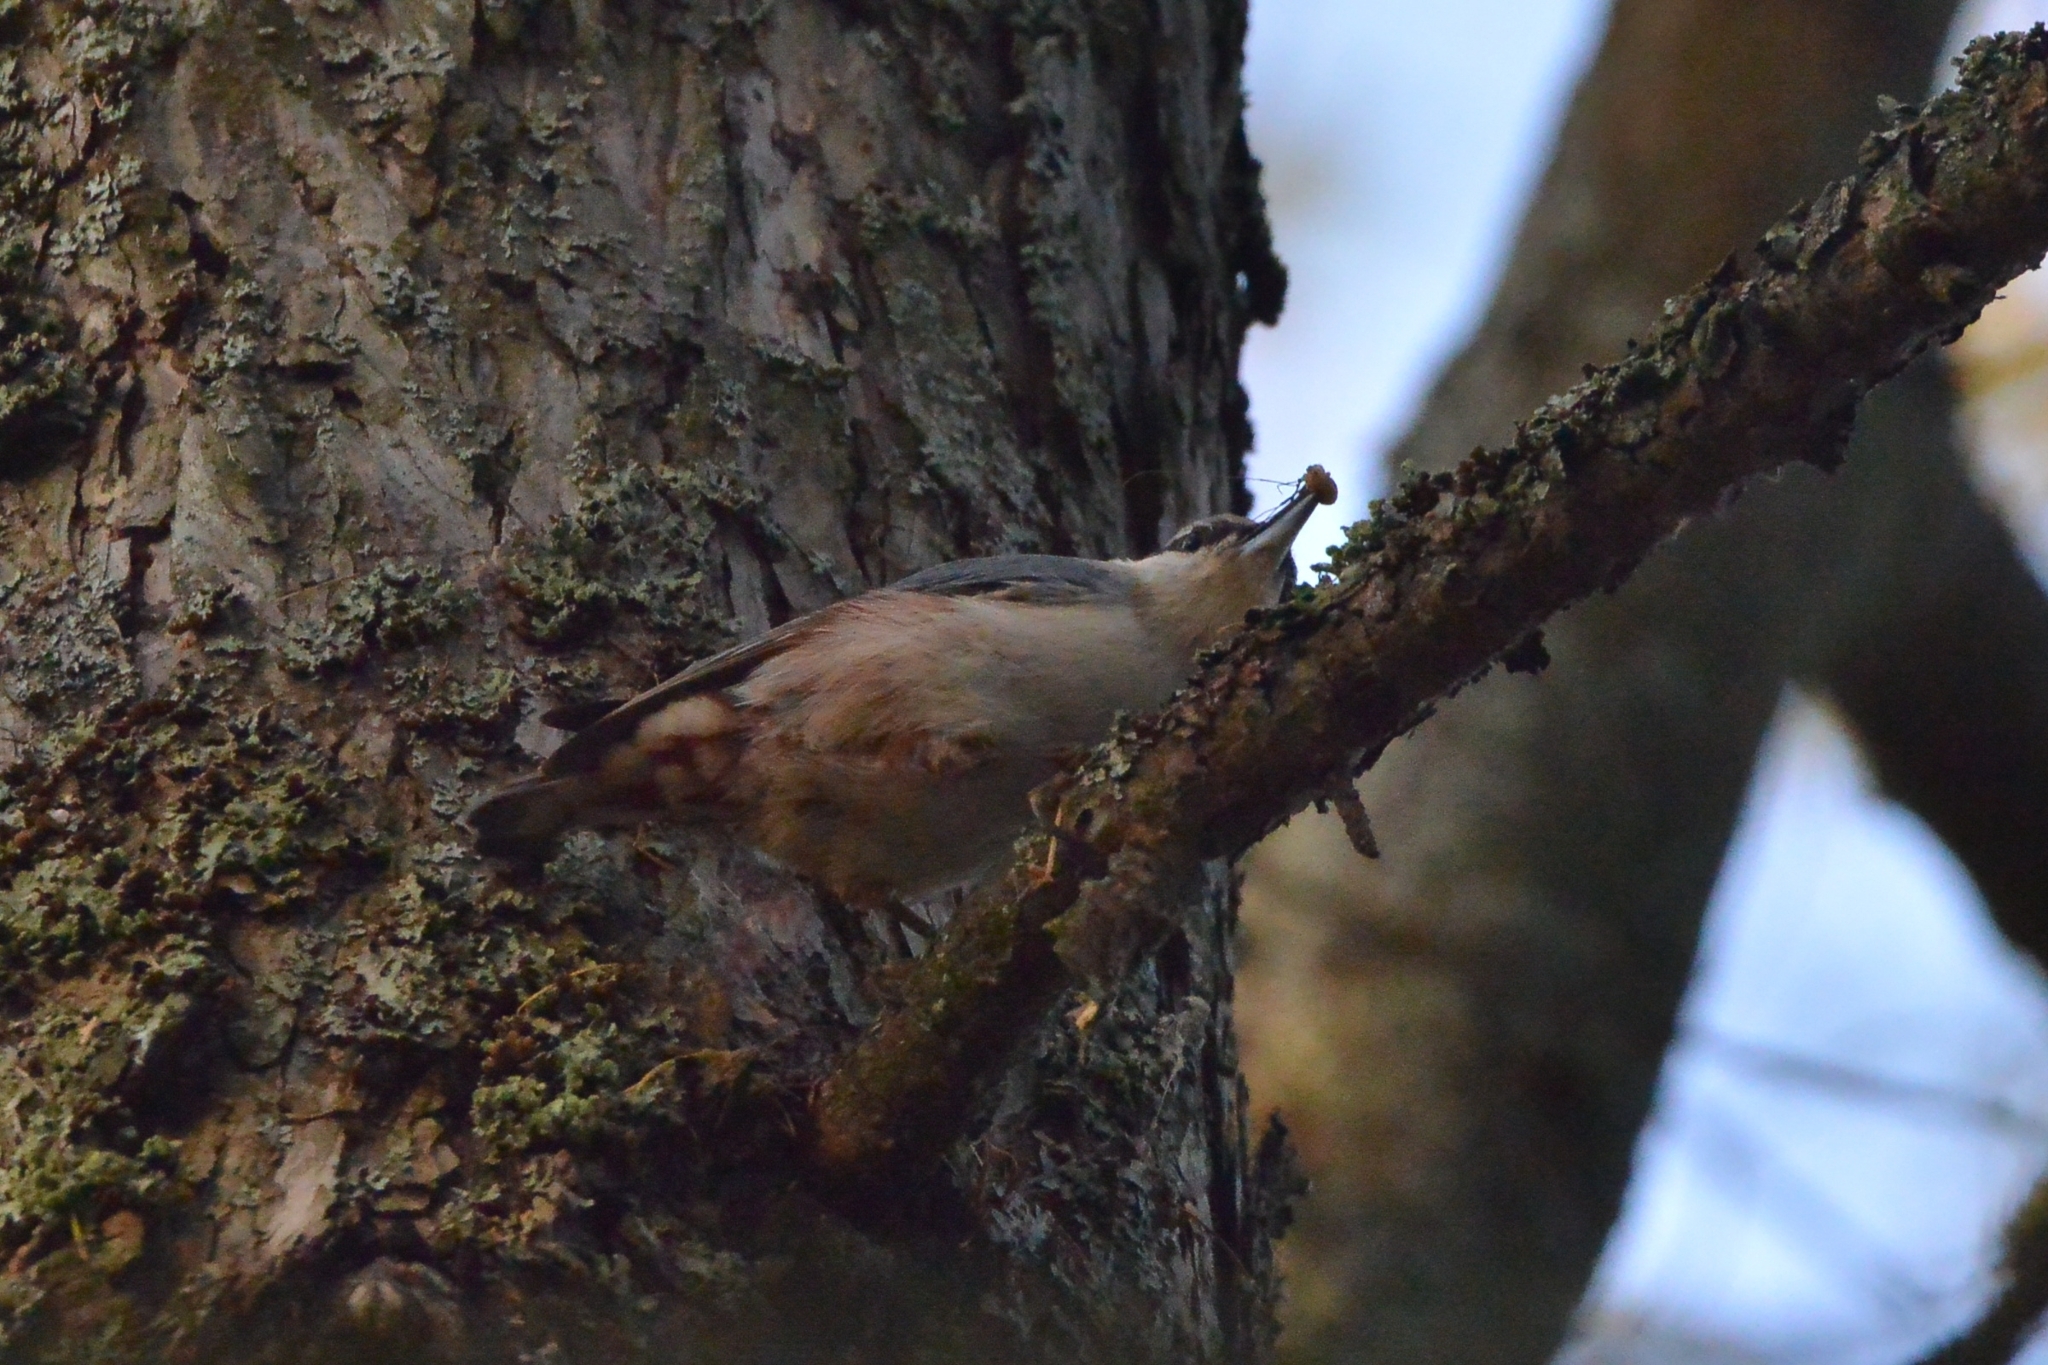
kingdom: Animalia
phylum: Chordata
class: Aves
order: Passeriformes
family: Sittidae
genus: Sitta
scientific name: Sitta europaea
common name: Eurasian nuthatch
